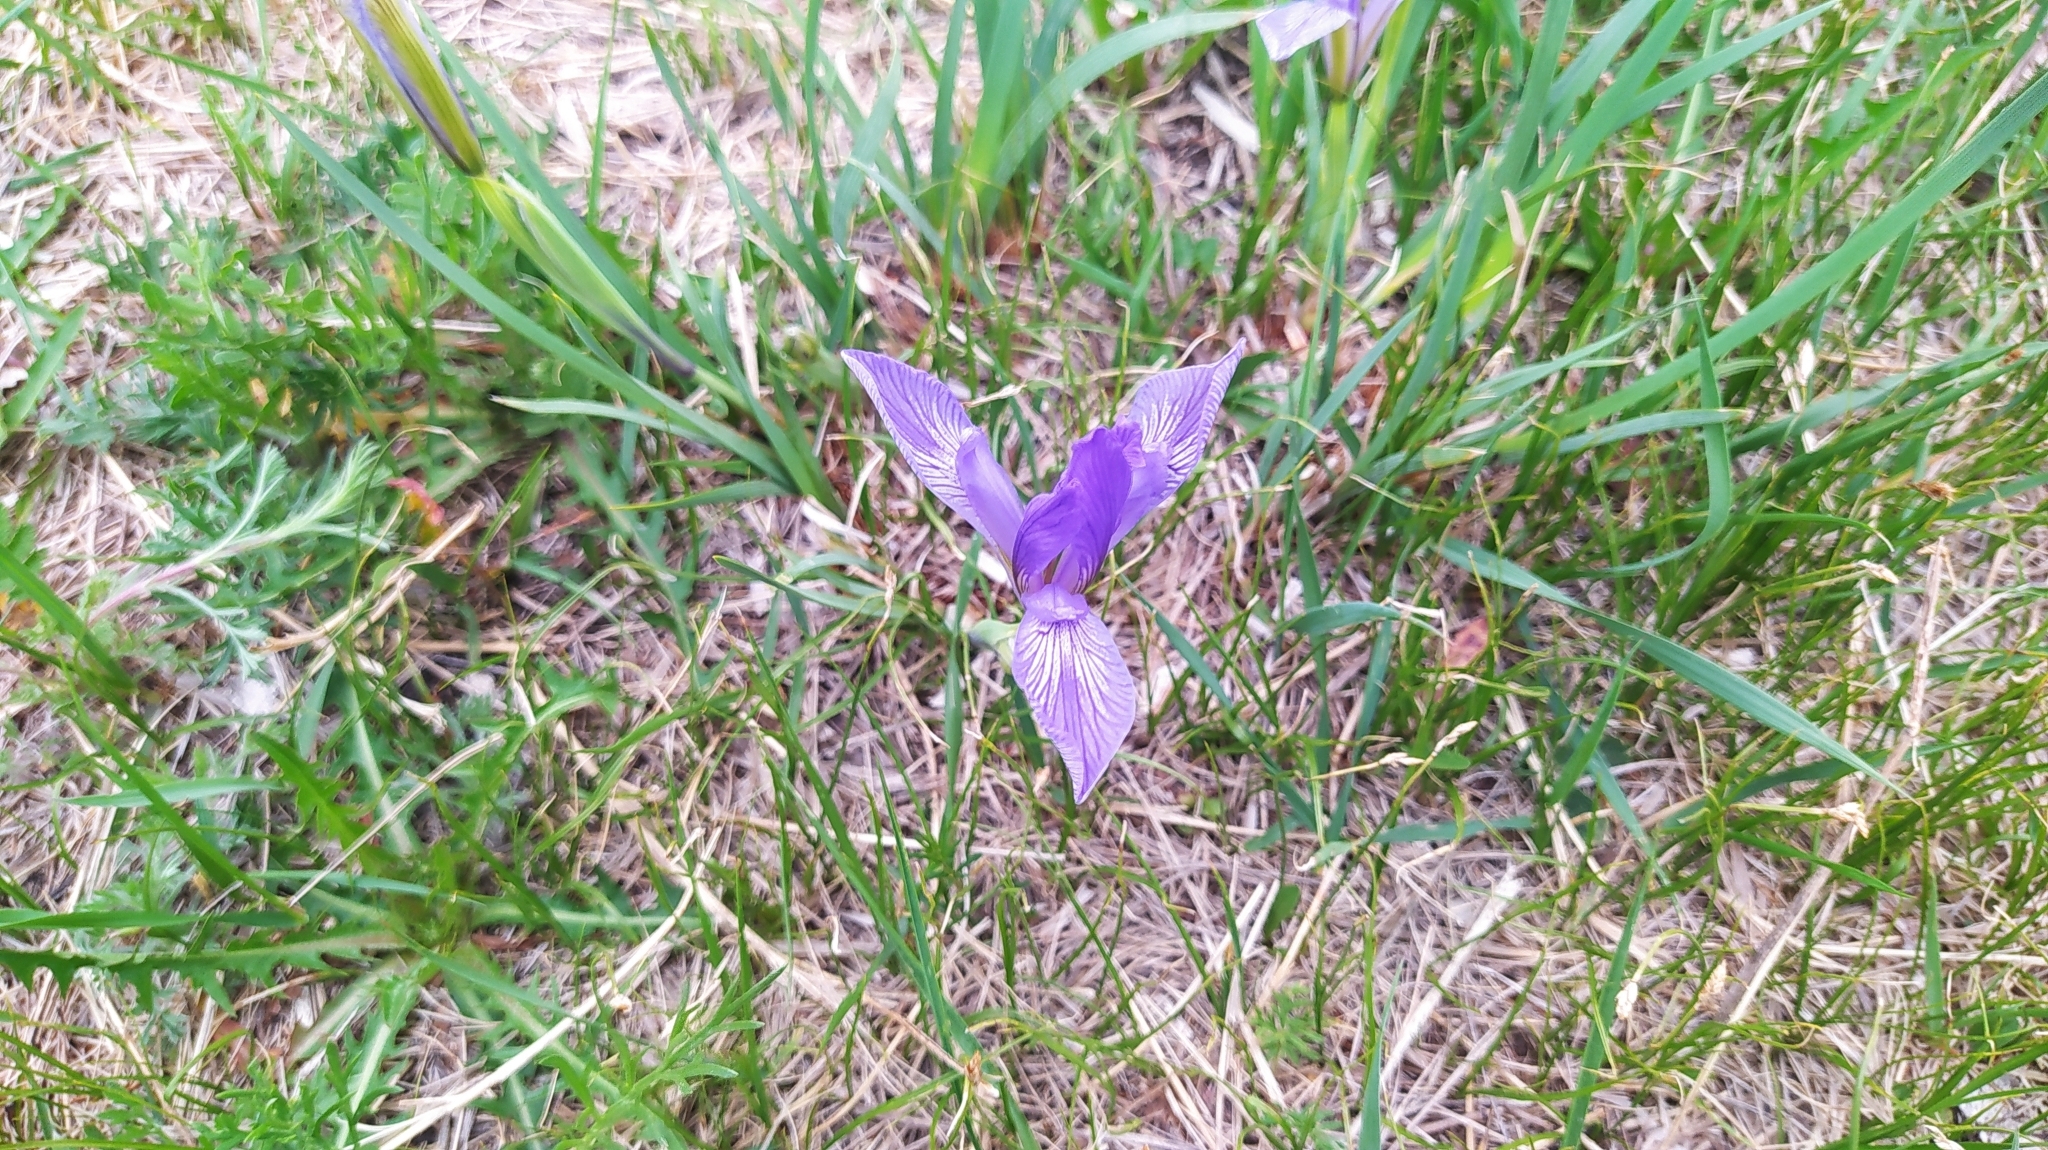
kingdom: Plantae
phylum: Tracheophyta
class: Liliopsida
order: Asparagales
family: Iridaceae
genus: Iris
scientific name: Iris lactea
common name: White-flower chinese iris
